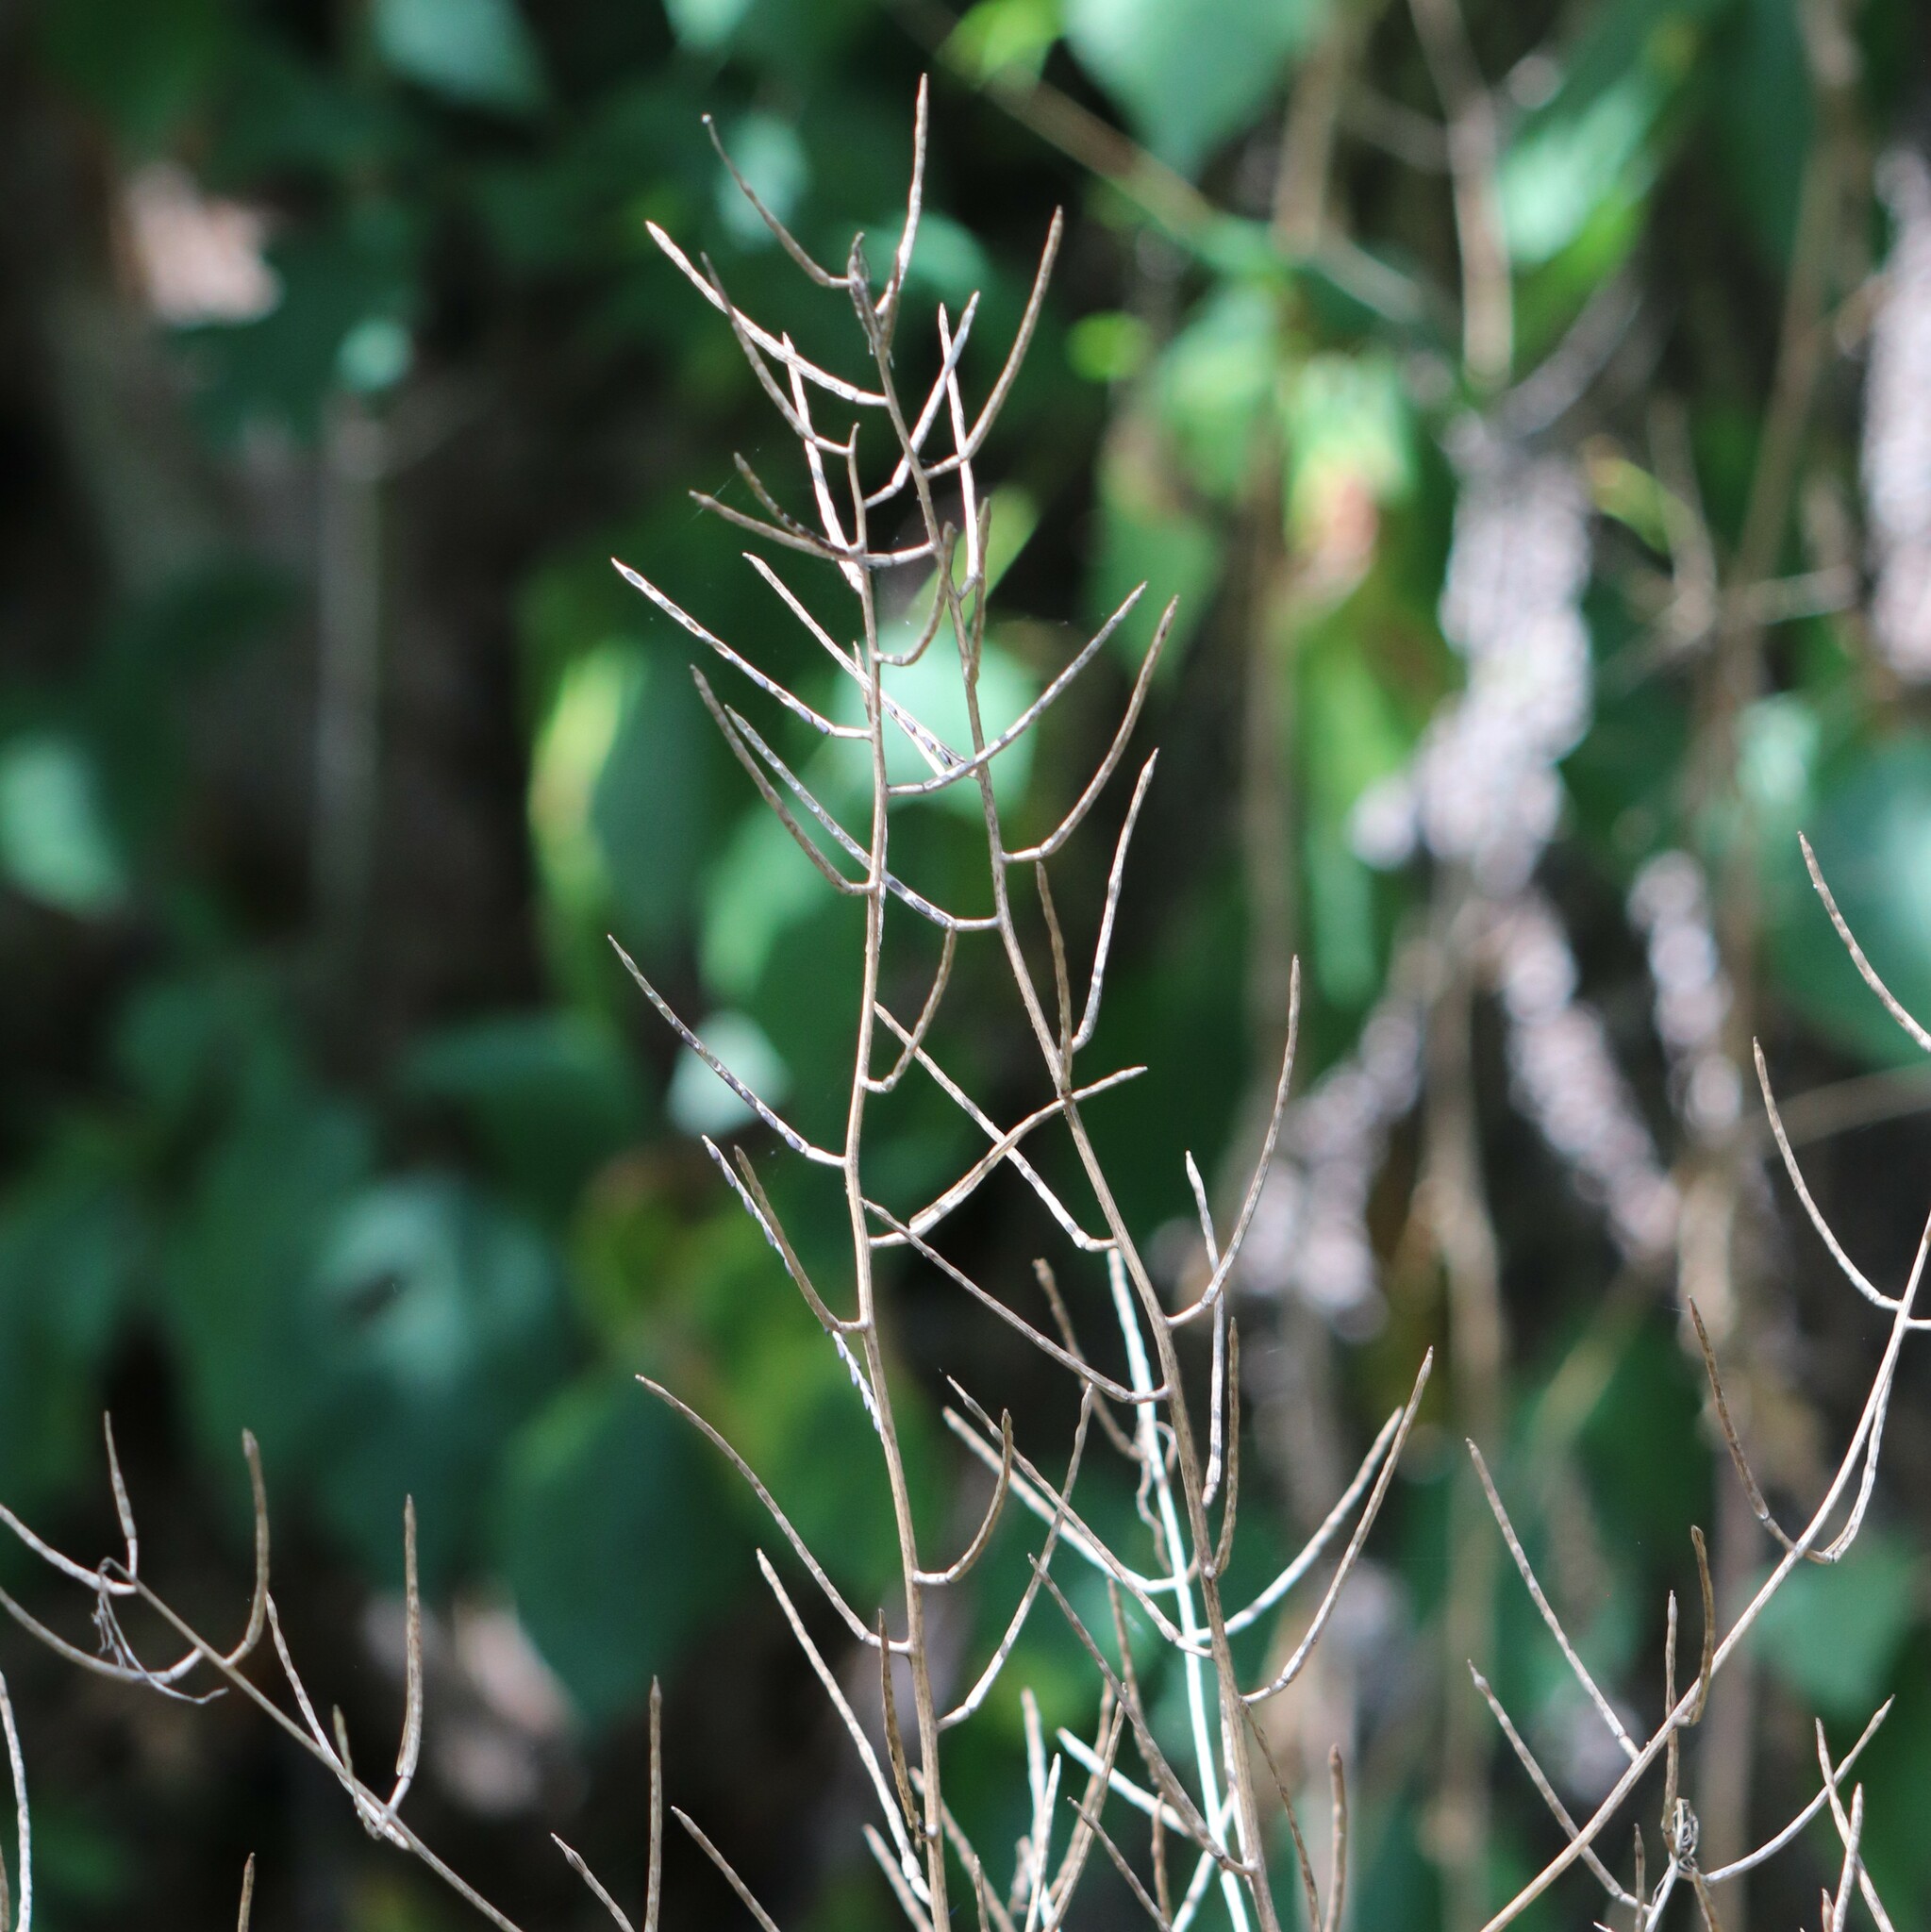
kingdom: Plantae
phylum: Tracheophyta
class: Magnoliopsida
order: Brassicales
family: Brassicaceae
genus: Alliaria
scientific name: Alliaria petiolata
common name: Garlic mustard
